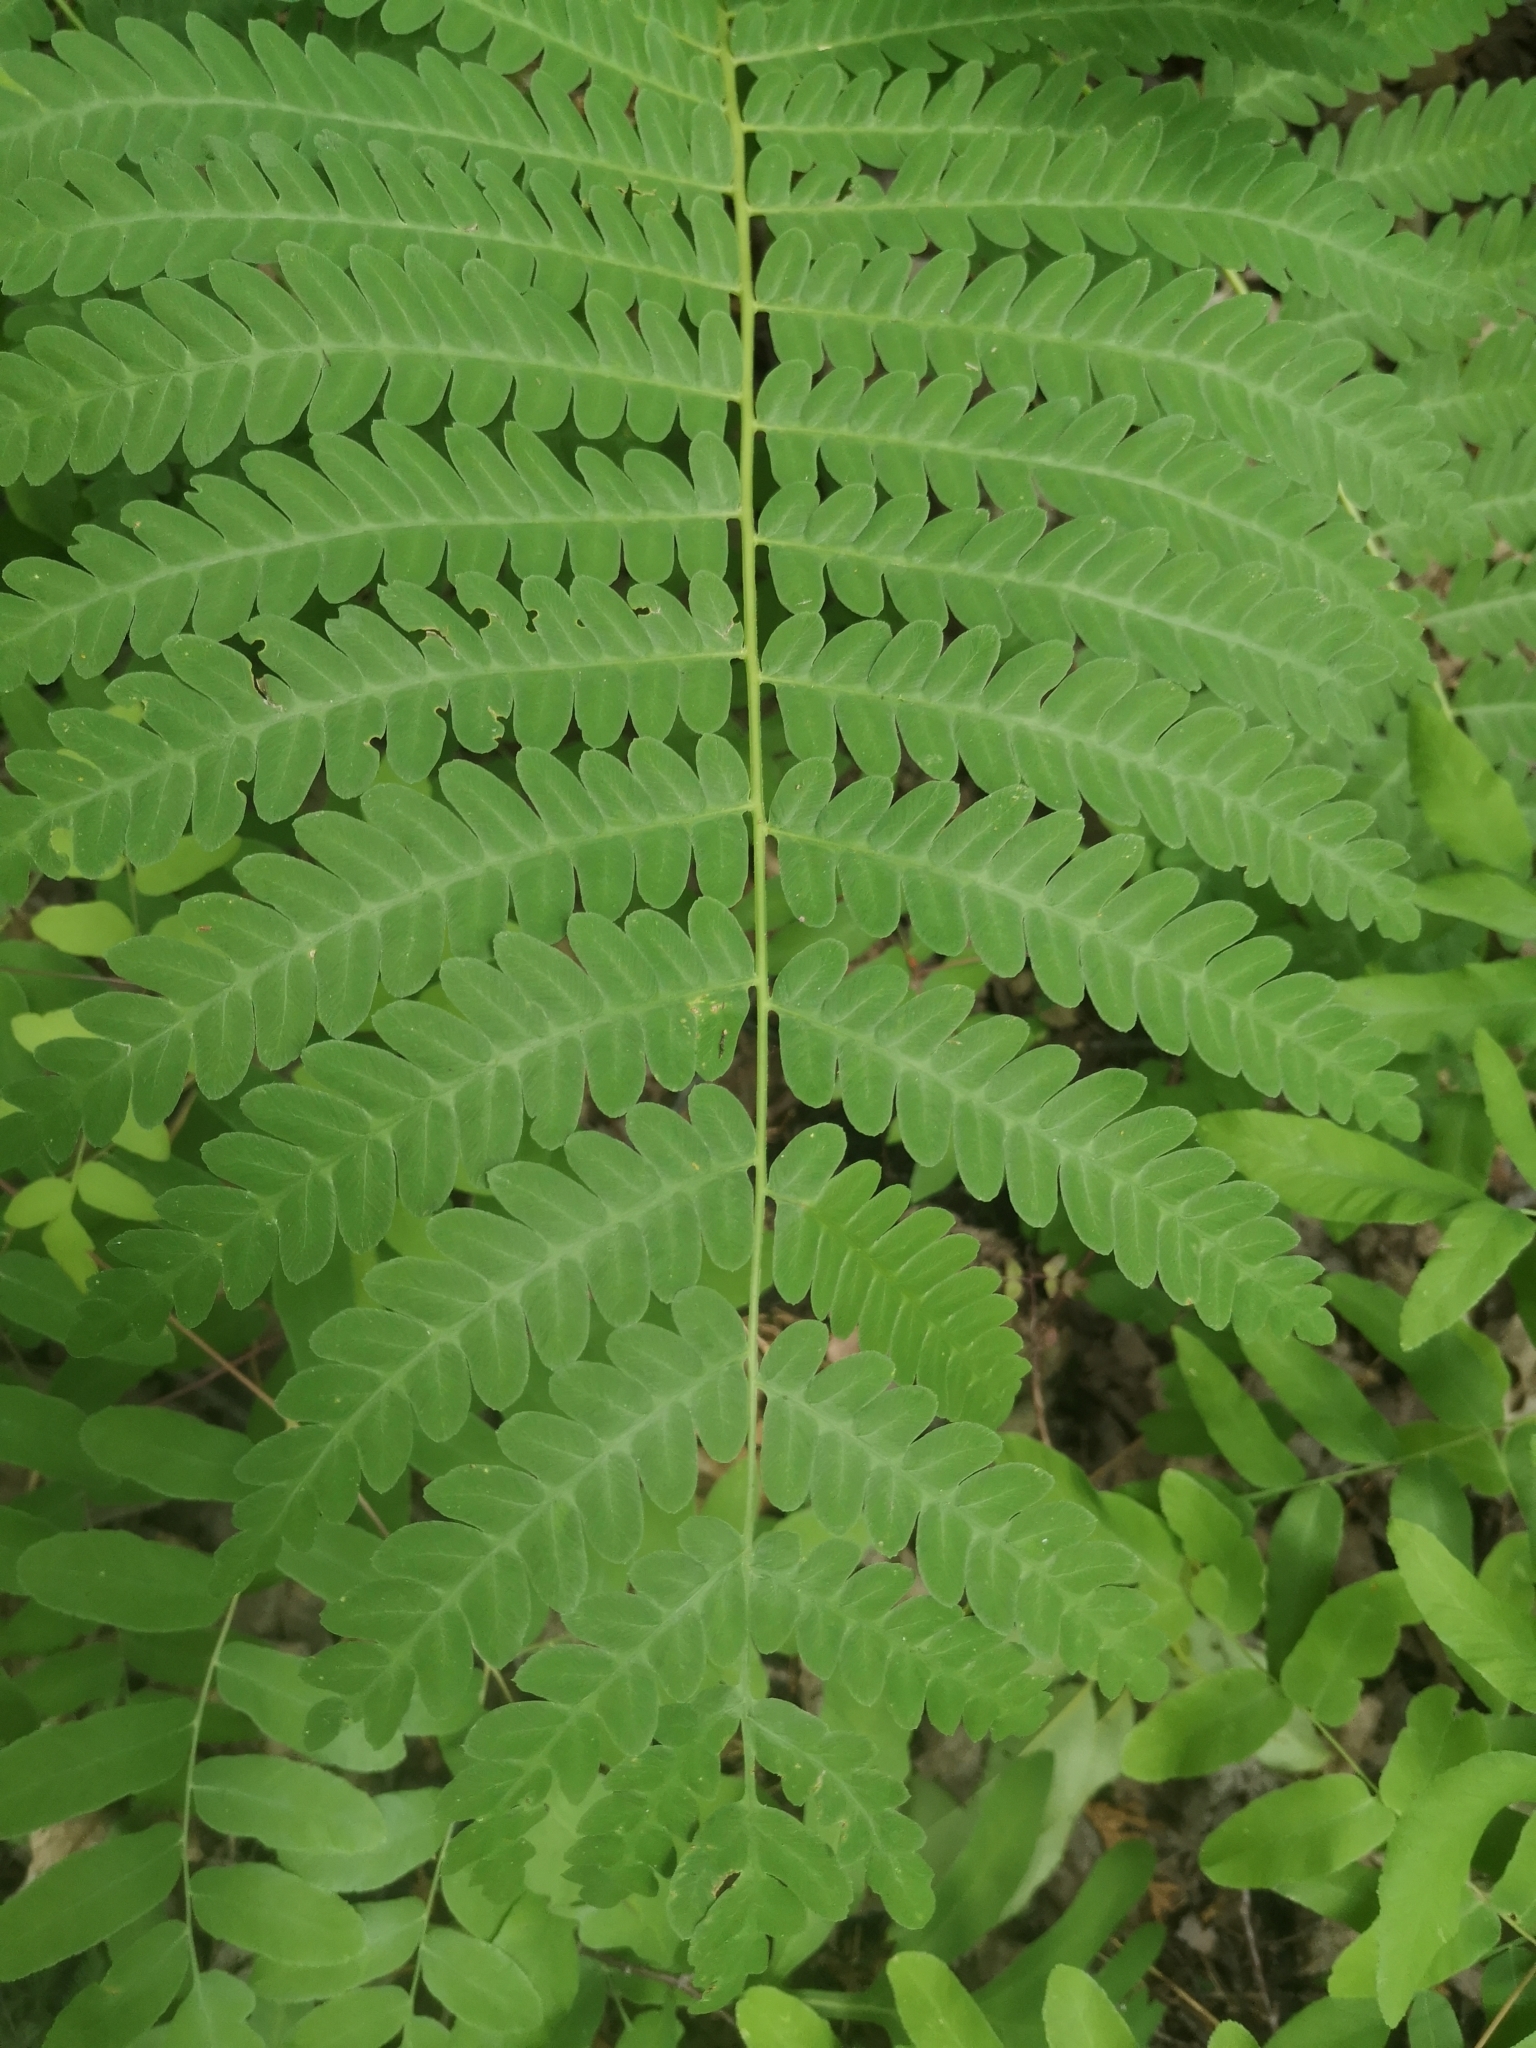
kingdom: Plantae
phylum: Tracheophyta
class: Polypodiopsida
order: Osmundales
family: Osmundaceae
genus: Claytosmunda
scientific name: Claytosmunda claytoniana
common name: Clayton's fern
